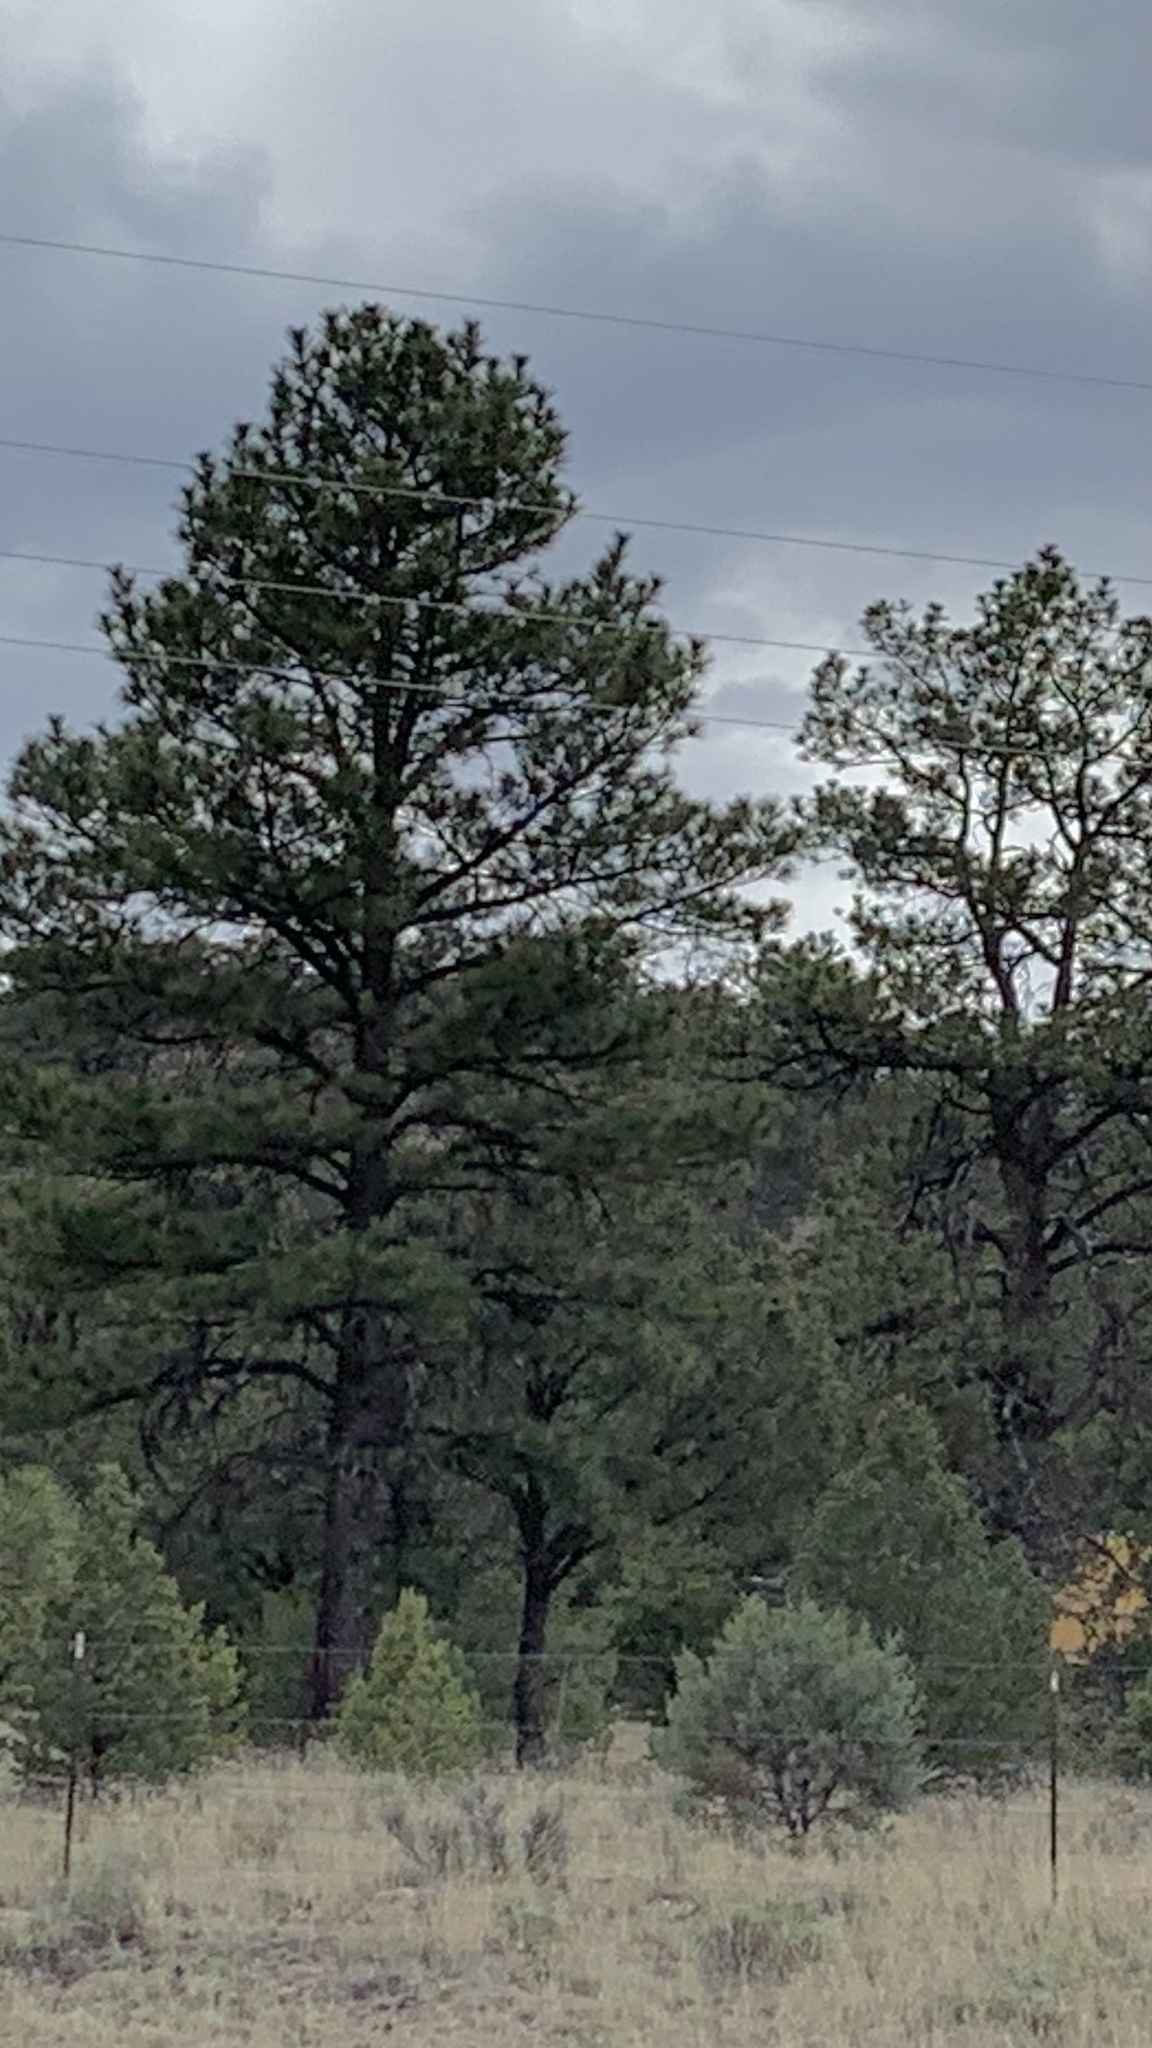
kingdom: Plantae
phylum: Tracheophyta
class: Pinopsida
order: Pinales
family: Pinaceae
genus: Pinus
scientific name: Pinus ponderosa
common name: Western yellow-pine
